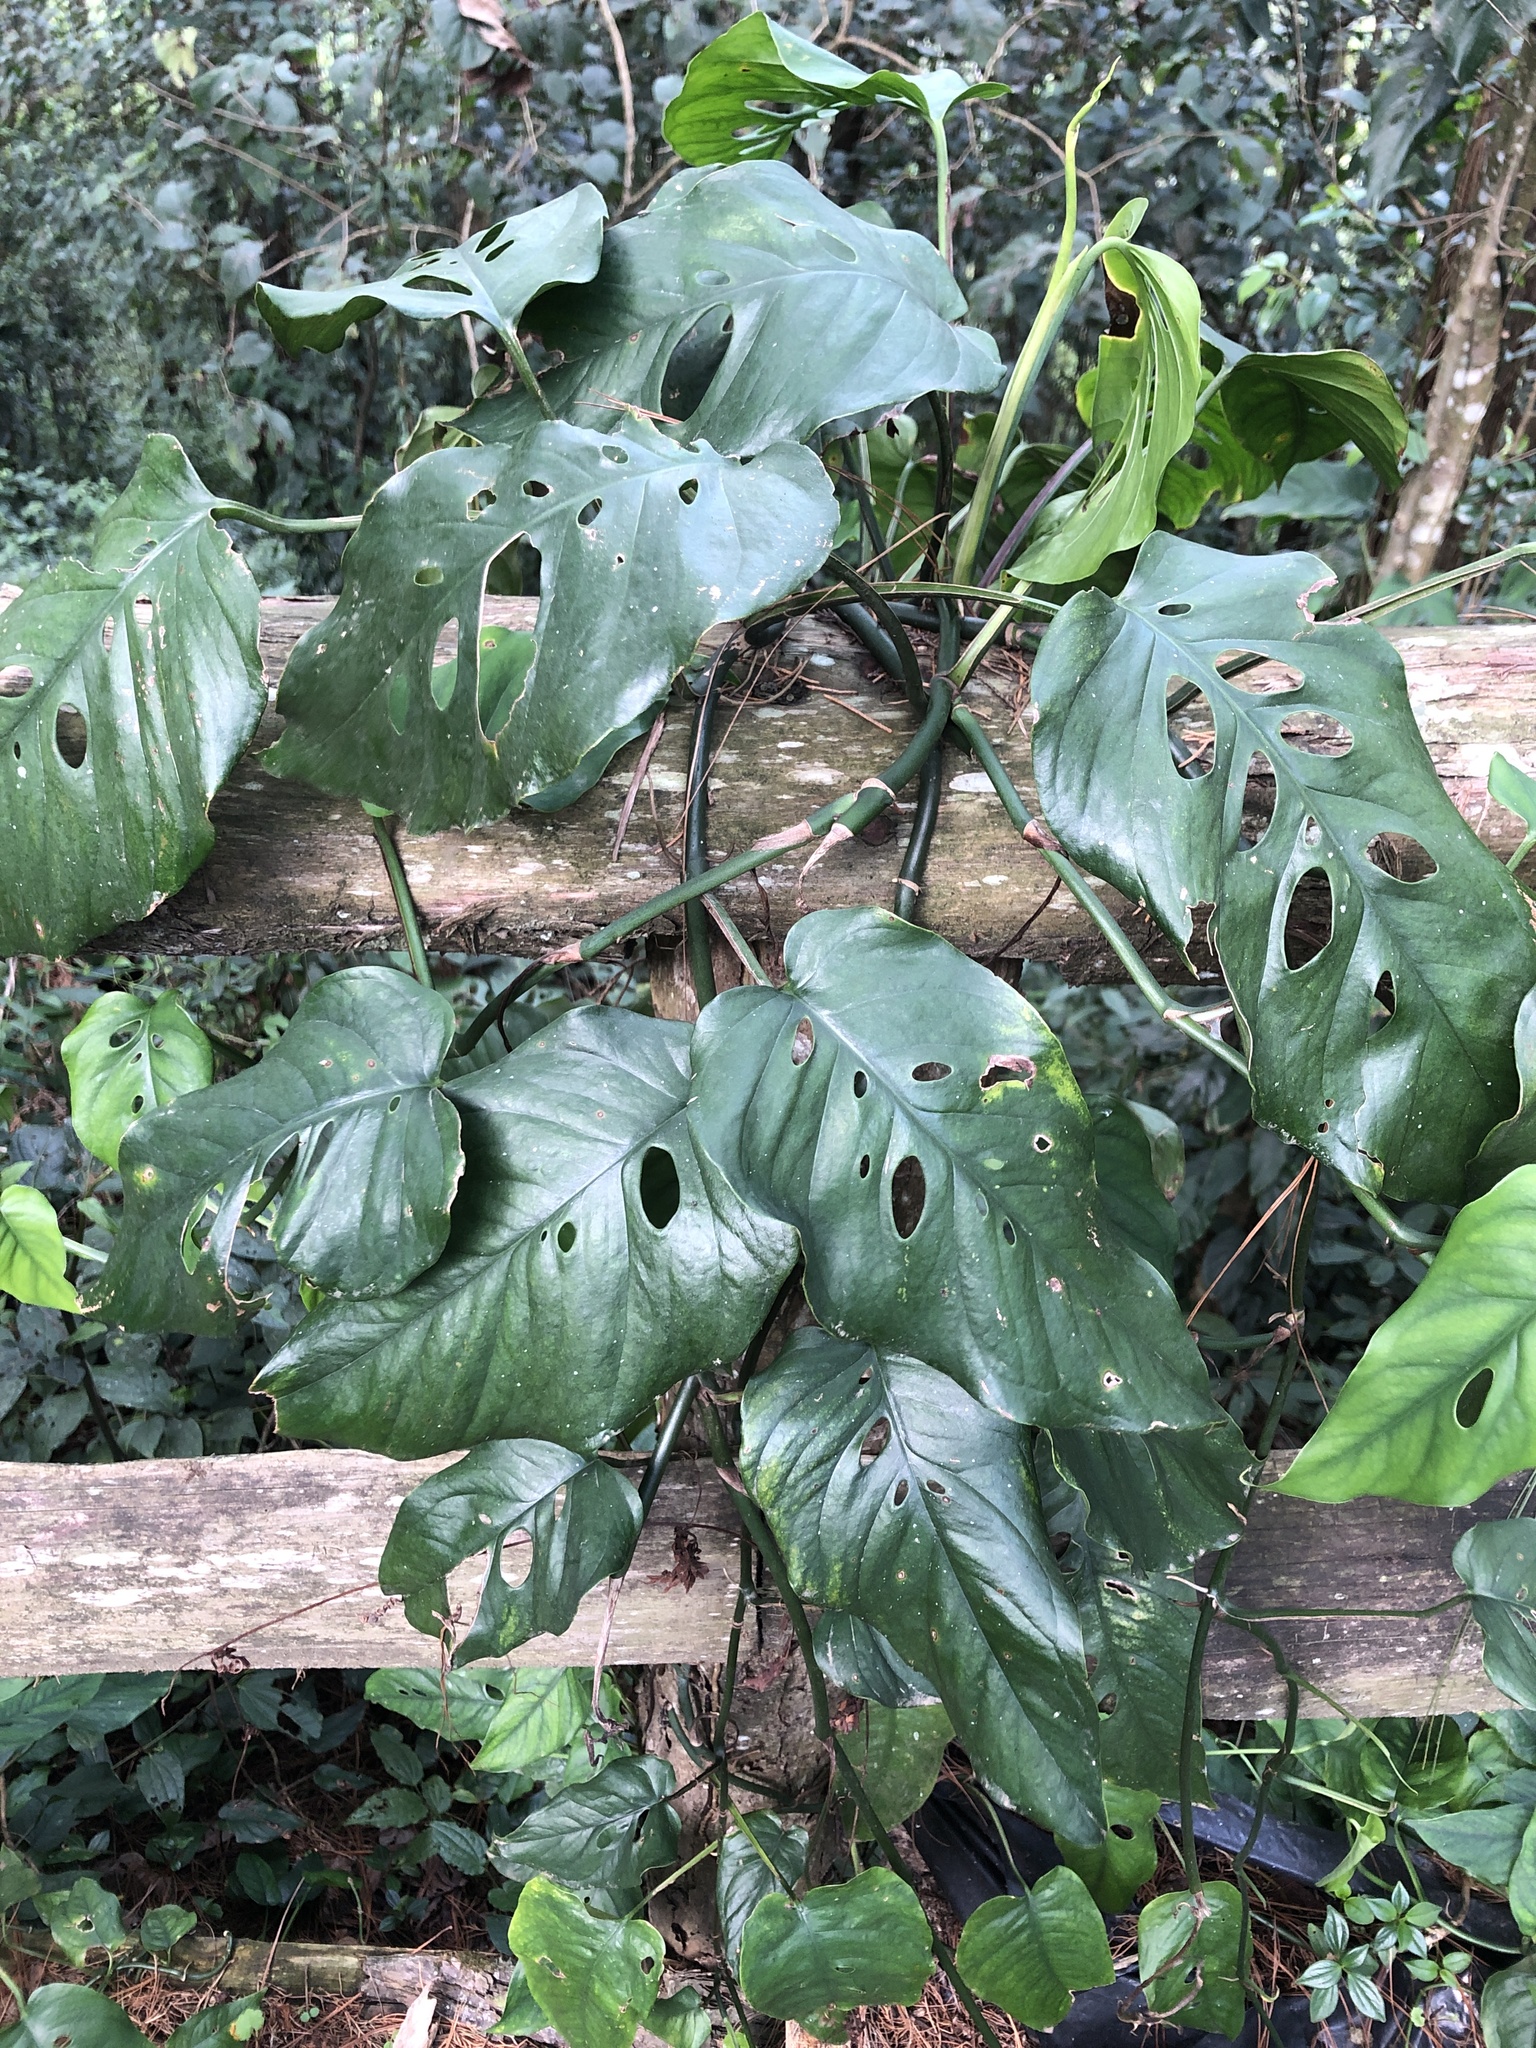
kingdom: Plantae
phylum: Tracheophyta
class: Liliopsida
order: Alismatales
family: Araceae
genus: Monstera
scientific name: Monstera siltepecana
